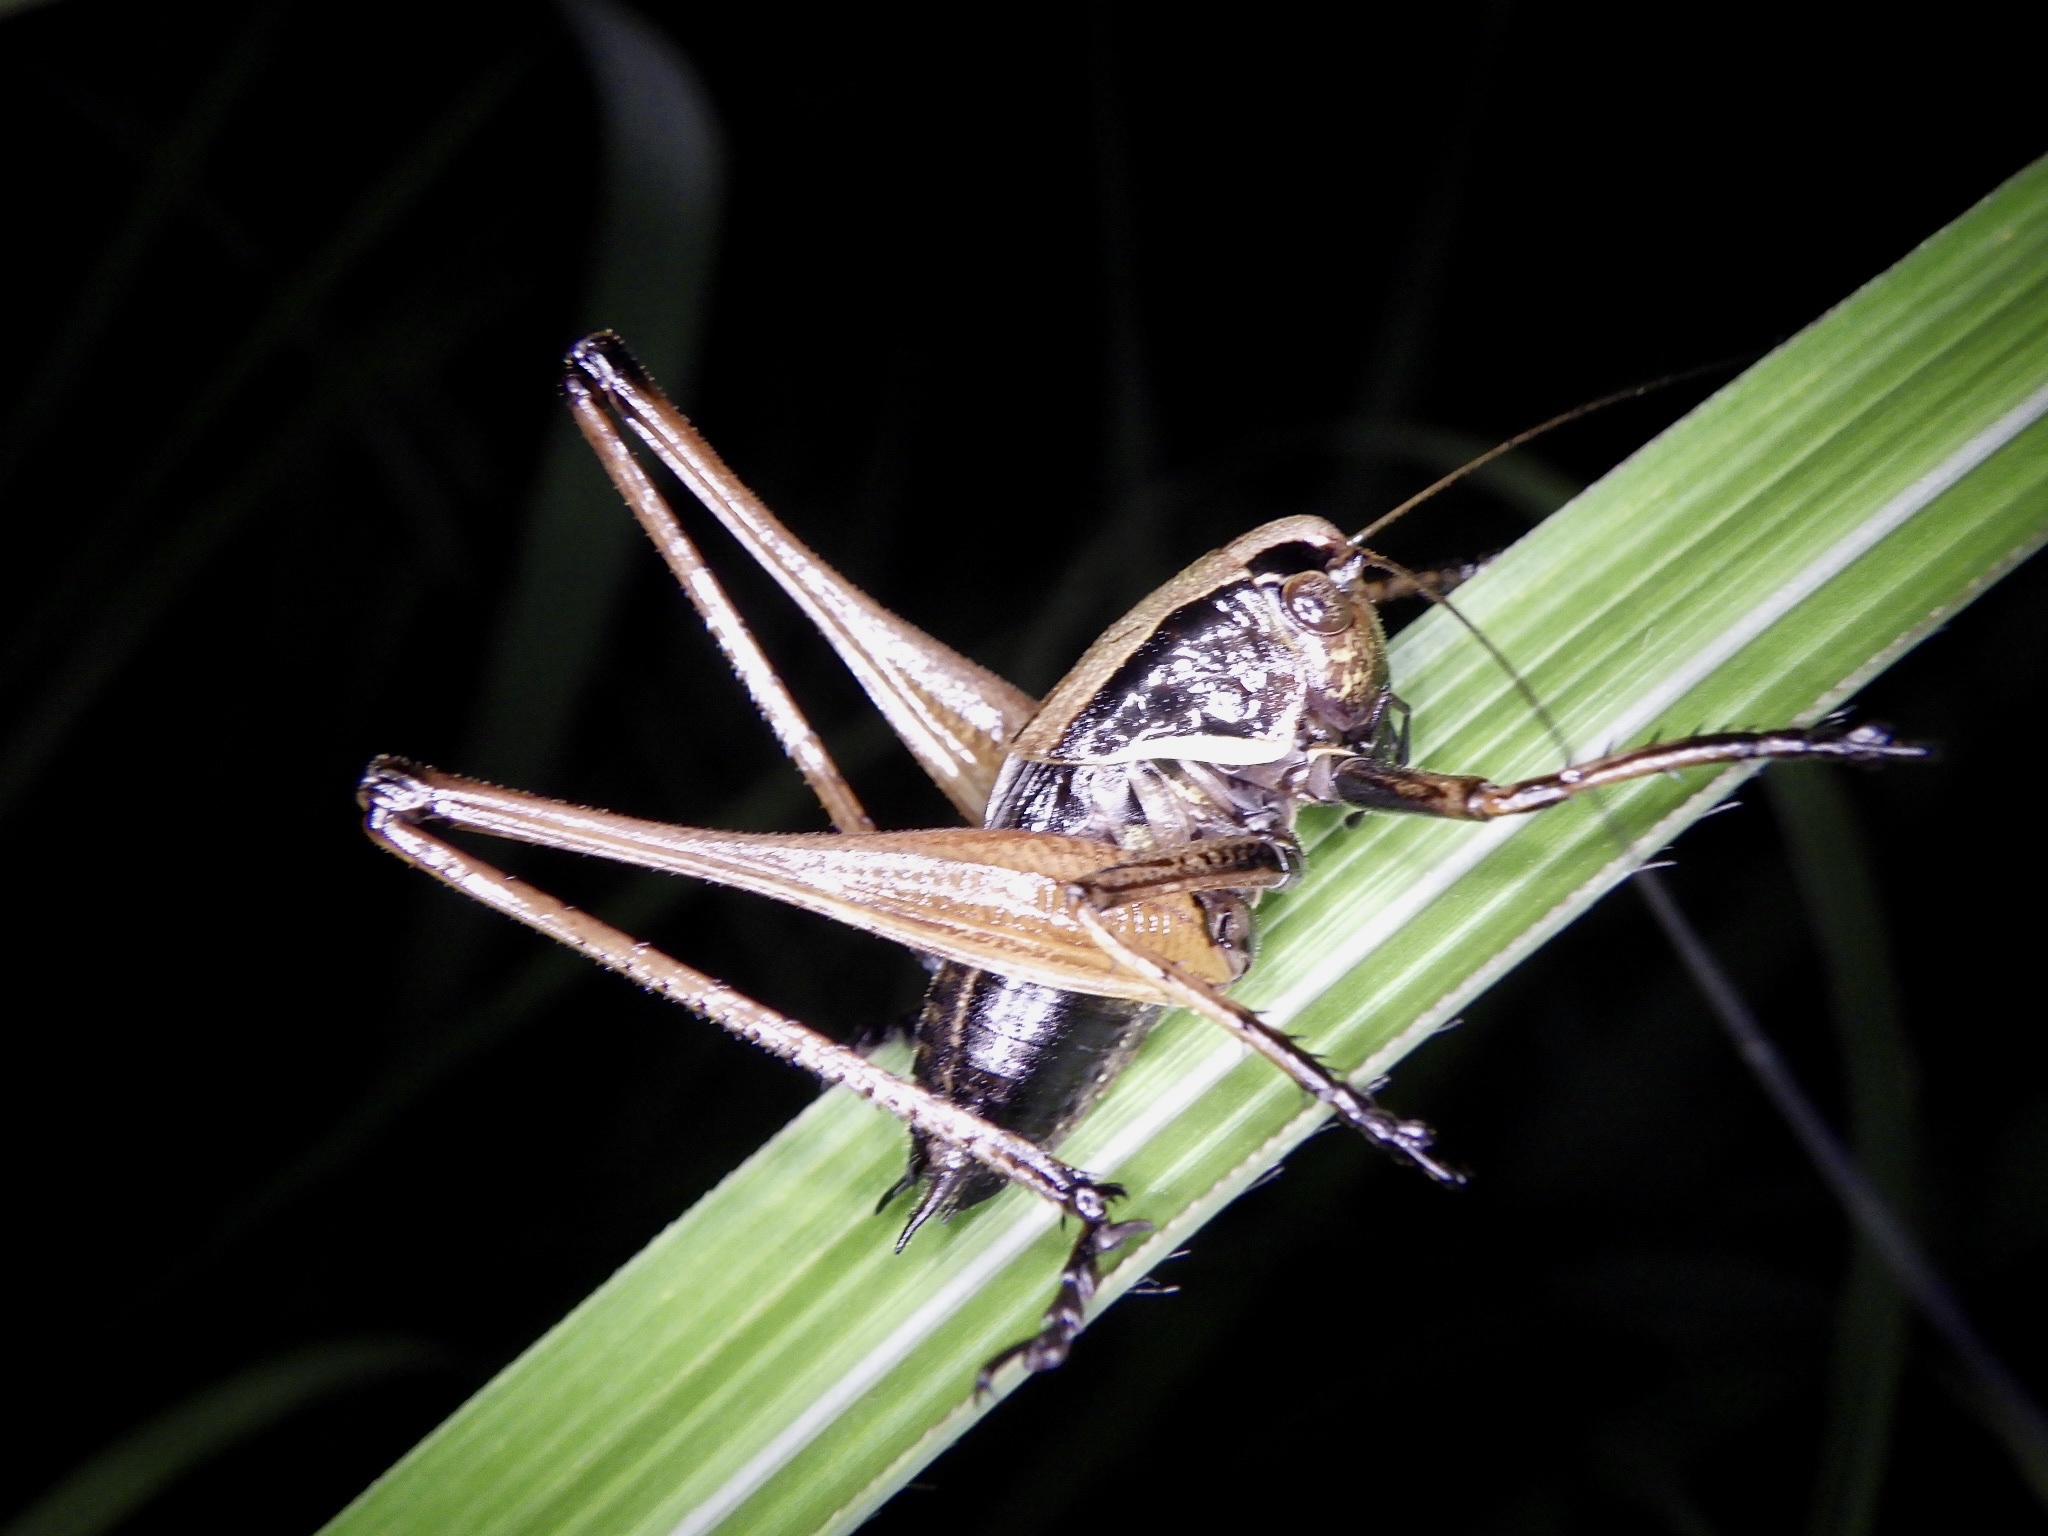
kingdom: Animalia
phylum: Arthropoda
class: Insecta
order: Orthoptera
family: Tettigoniidae
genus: Eobiana
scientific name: Eobiana engelhardti
